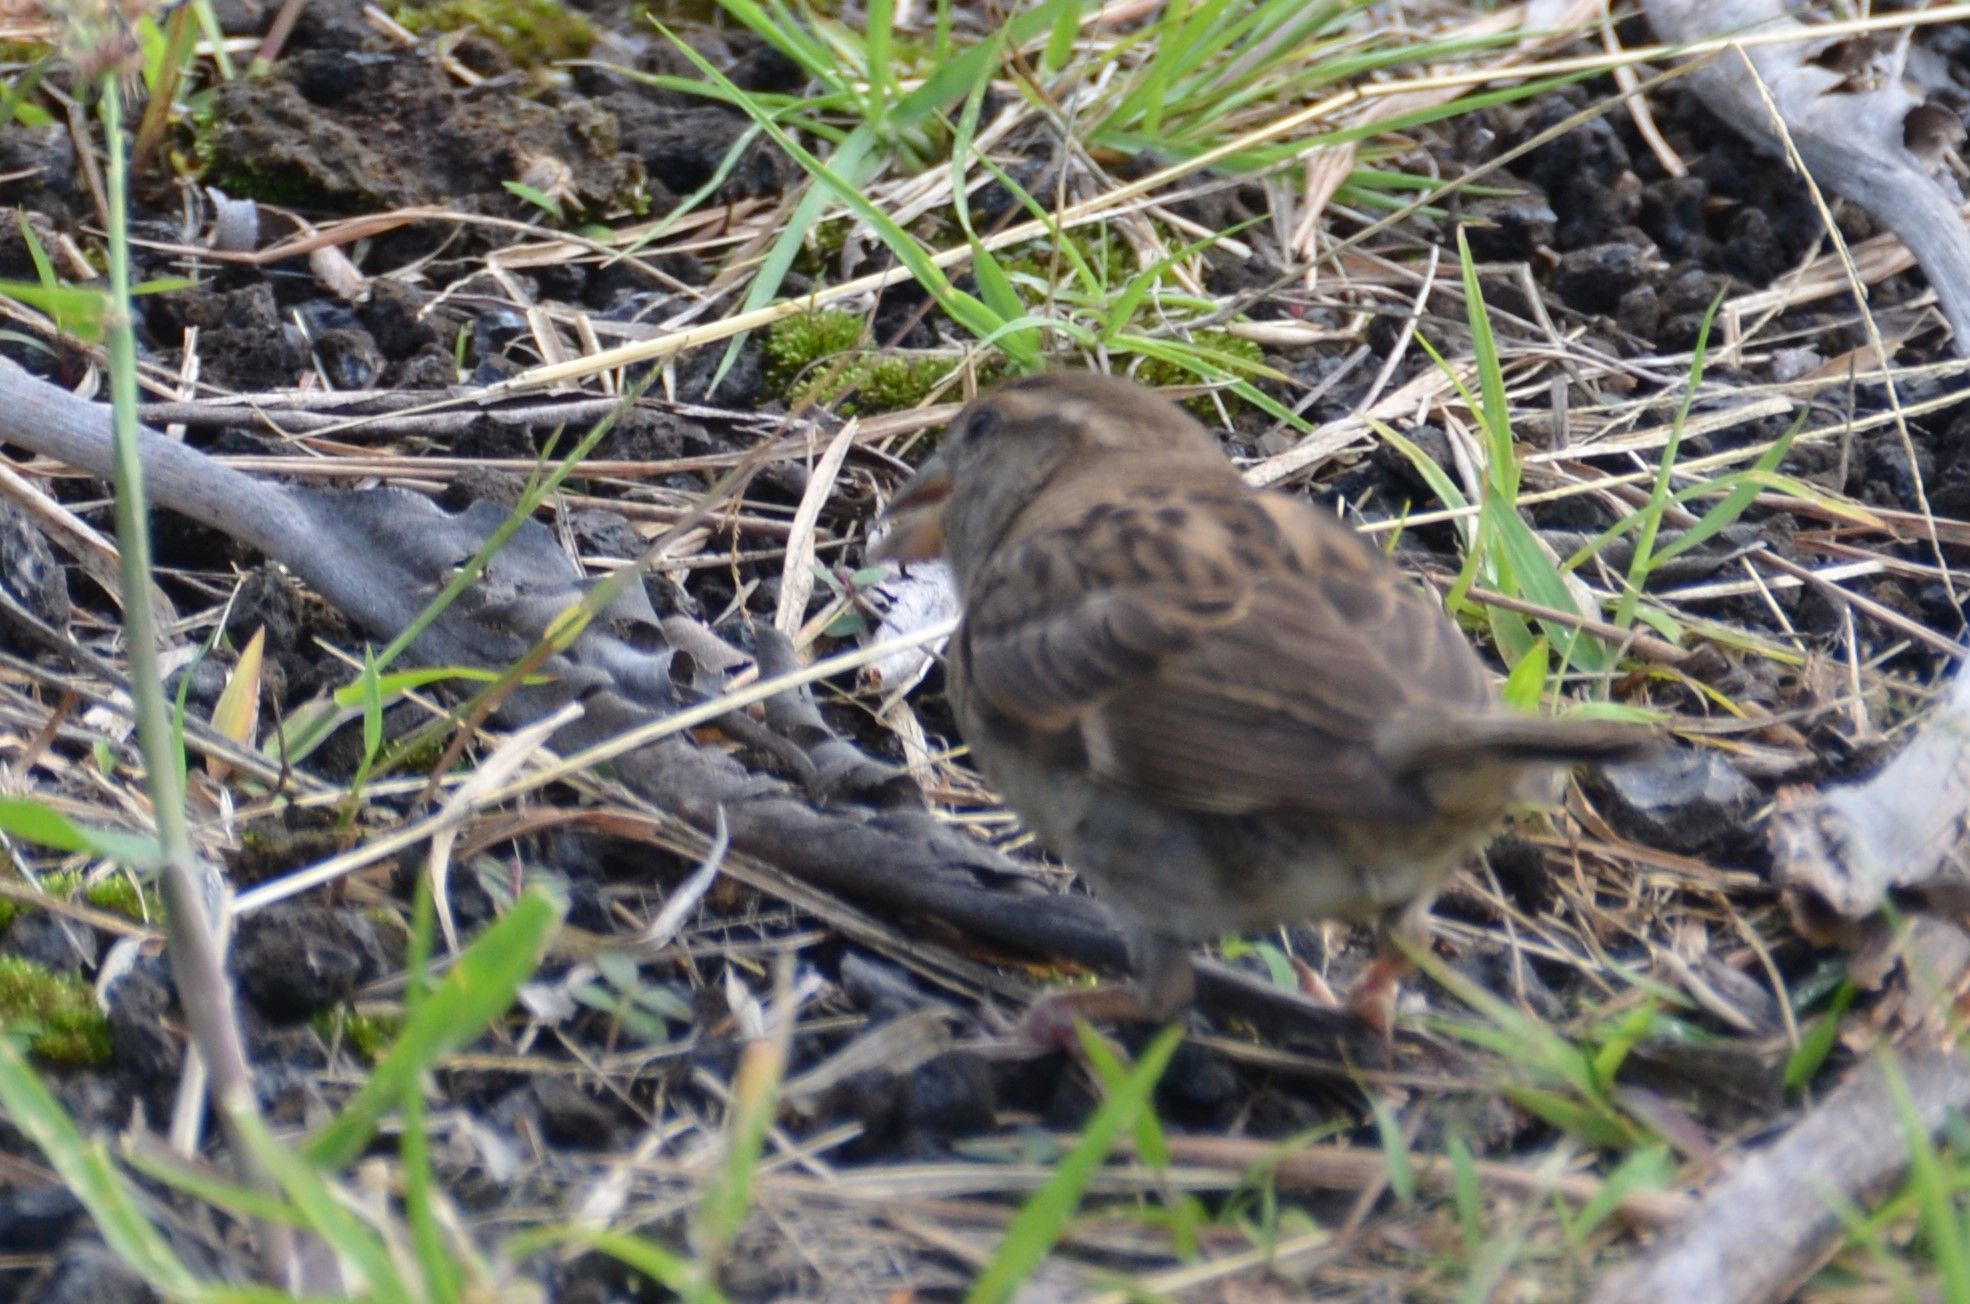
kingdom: Animalia
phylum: Chordata
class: Aves
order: Passeriformes
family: Passeridae
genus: Passer
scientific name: Passer domesticus
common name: House sparrow
